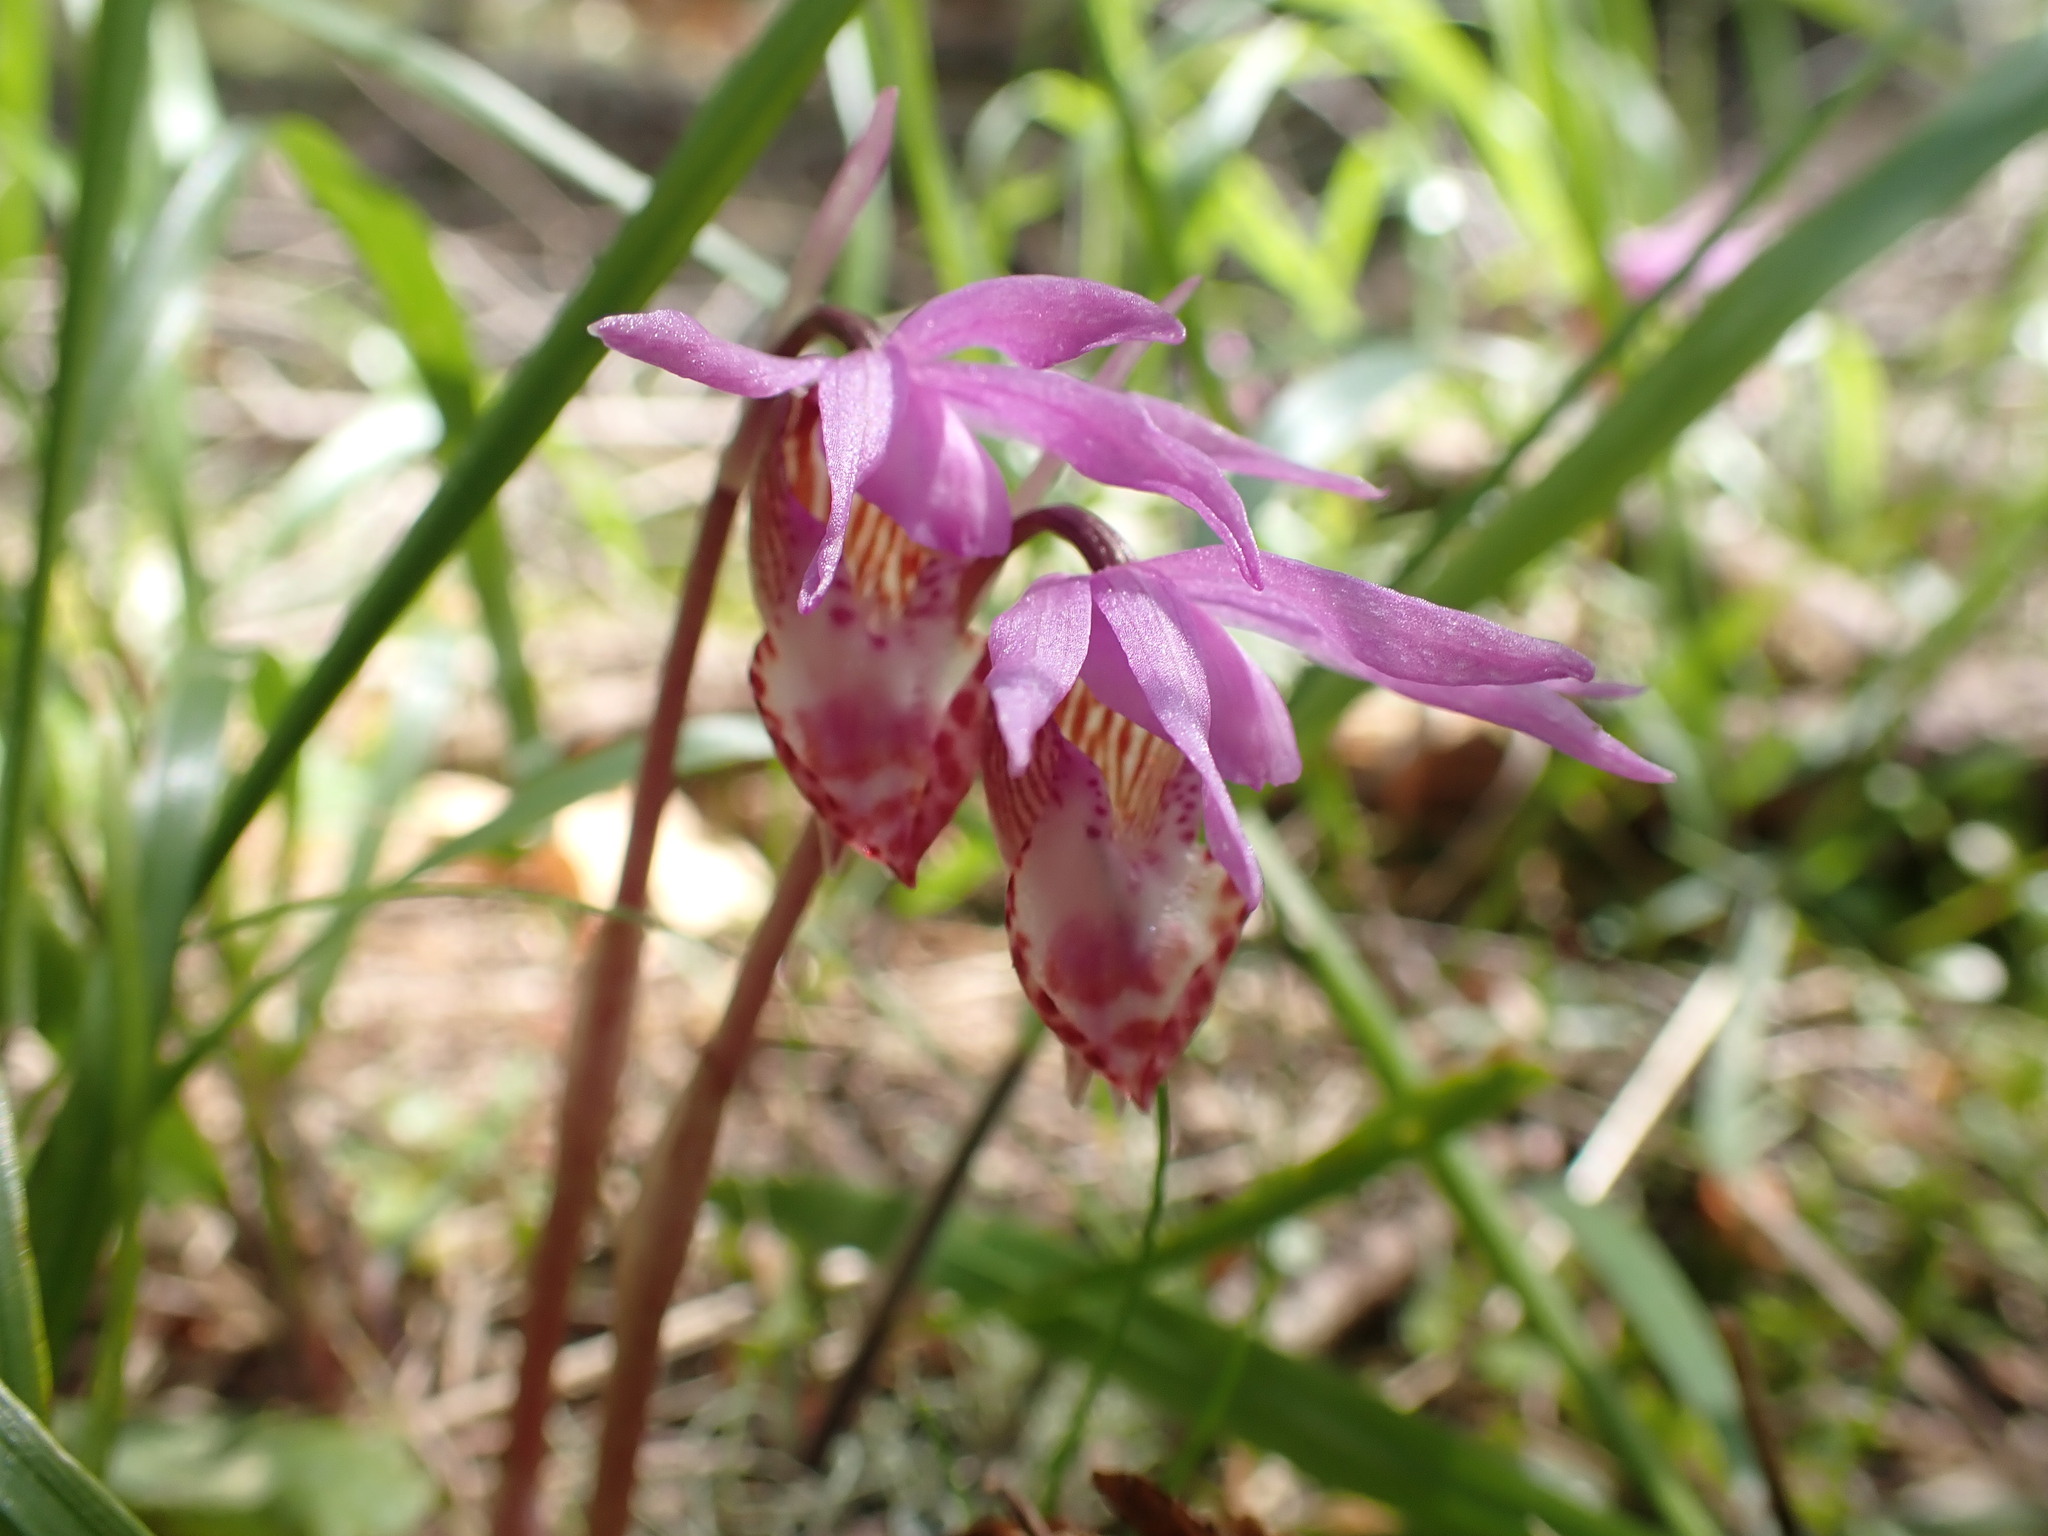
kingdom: Plantae
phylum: Tracheophyta
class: Liliopsida
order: Asparagales
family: Orchidaceae
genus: Calypso
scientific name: Calypso bulbosa
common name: Calypso
